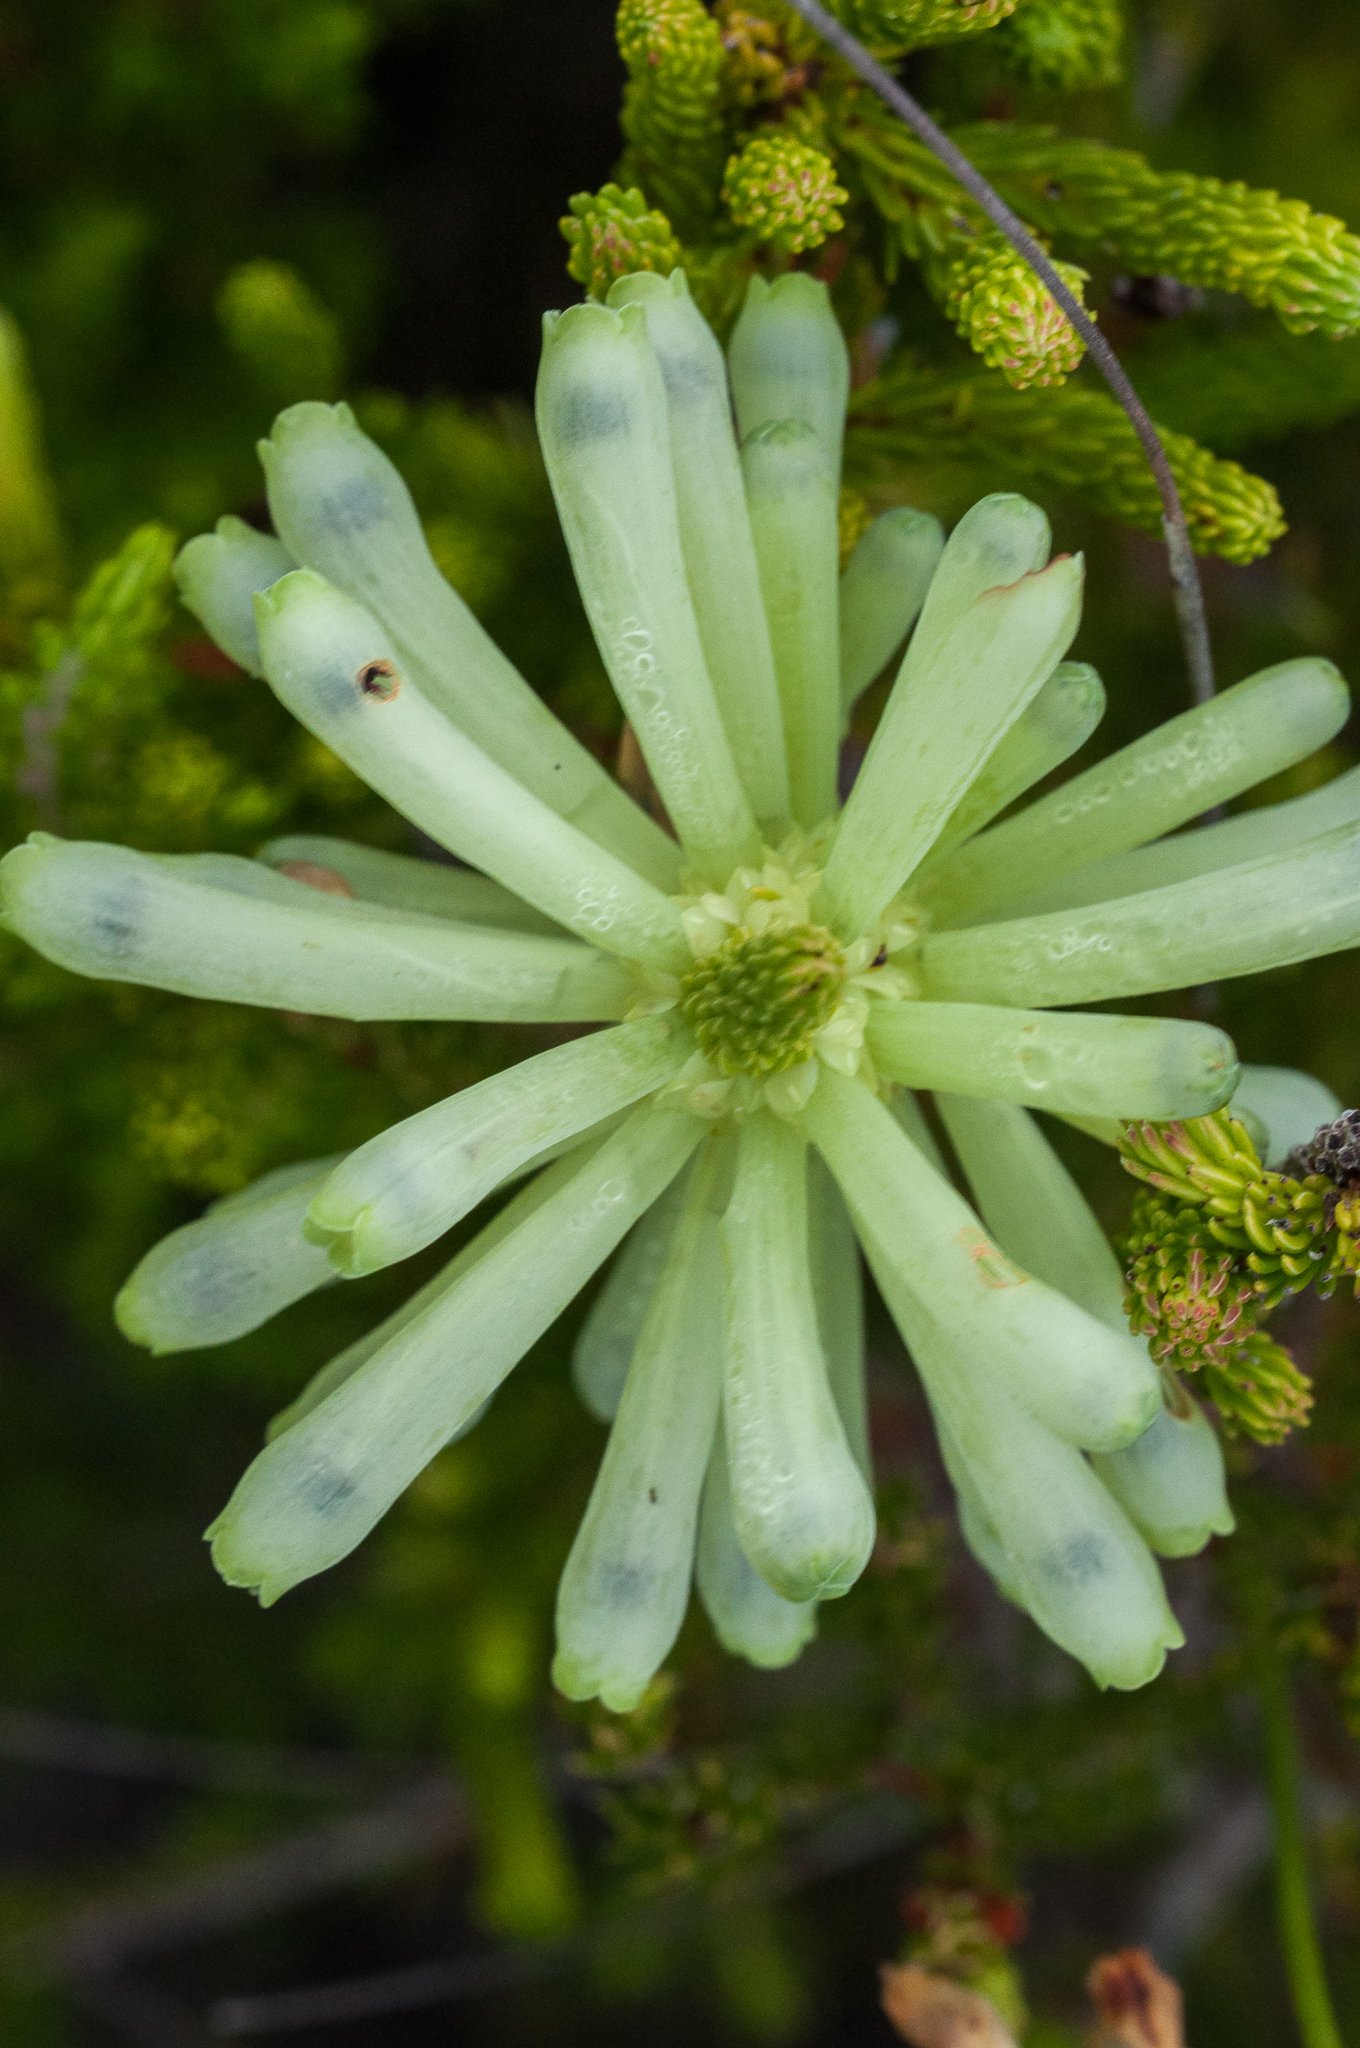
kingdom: Plantae
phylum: Tracheophyta
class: Magnoliopsida
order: Ericales
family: Ericaceae
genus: Erica
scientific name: Erica sessiliflora
